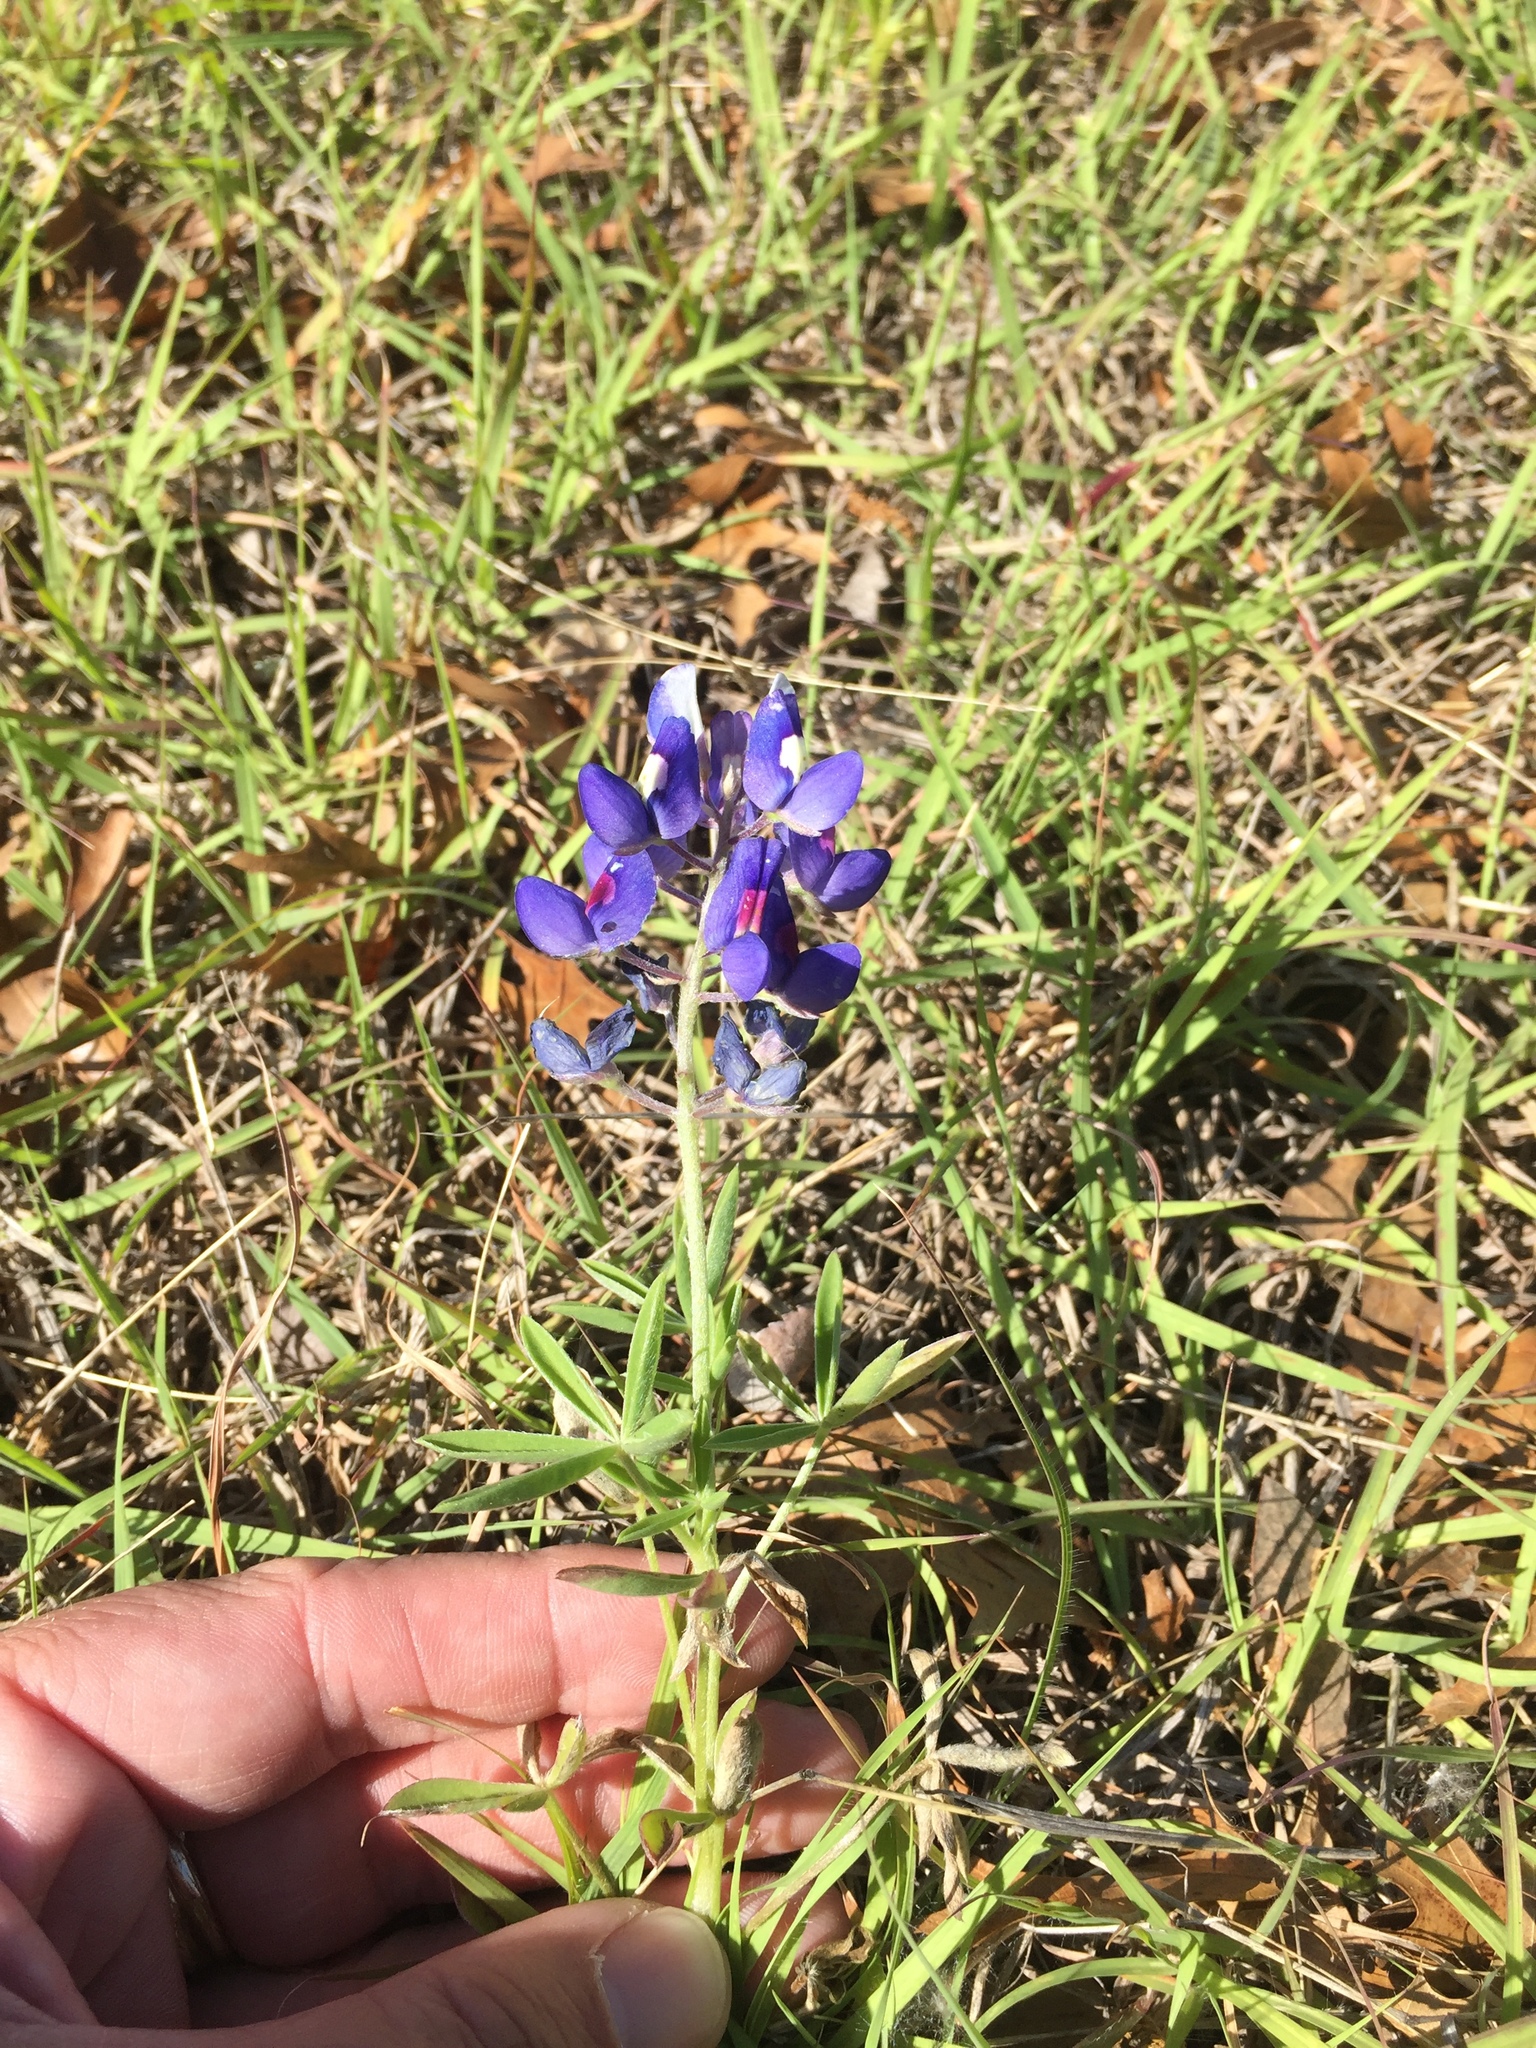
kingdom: Plantae
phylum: Tracheophyta
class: Magnoliopsida
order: Fabales
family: Fabaceae
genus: Lupinus
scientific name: Lupinus texensis
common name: Texas bluebonnet
